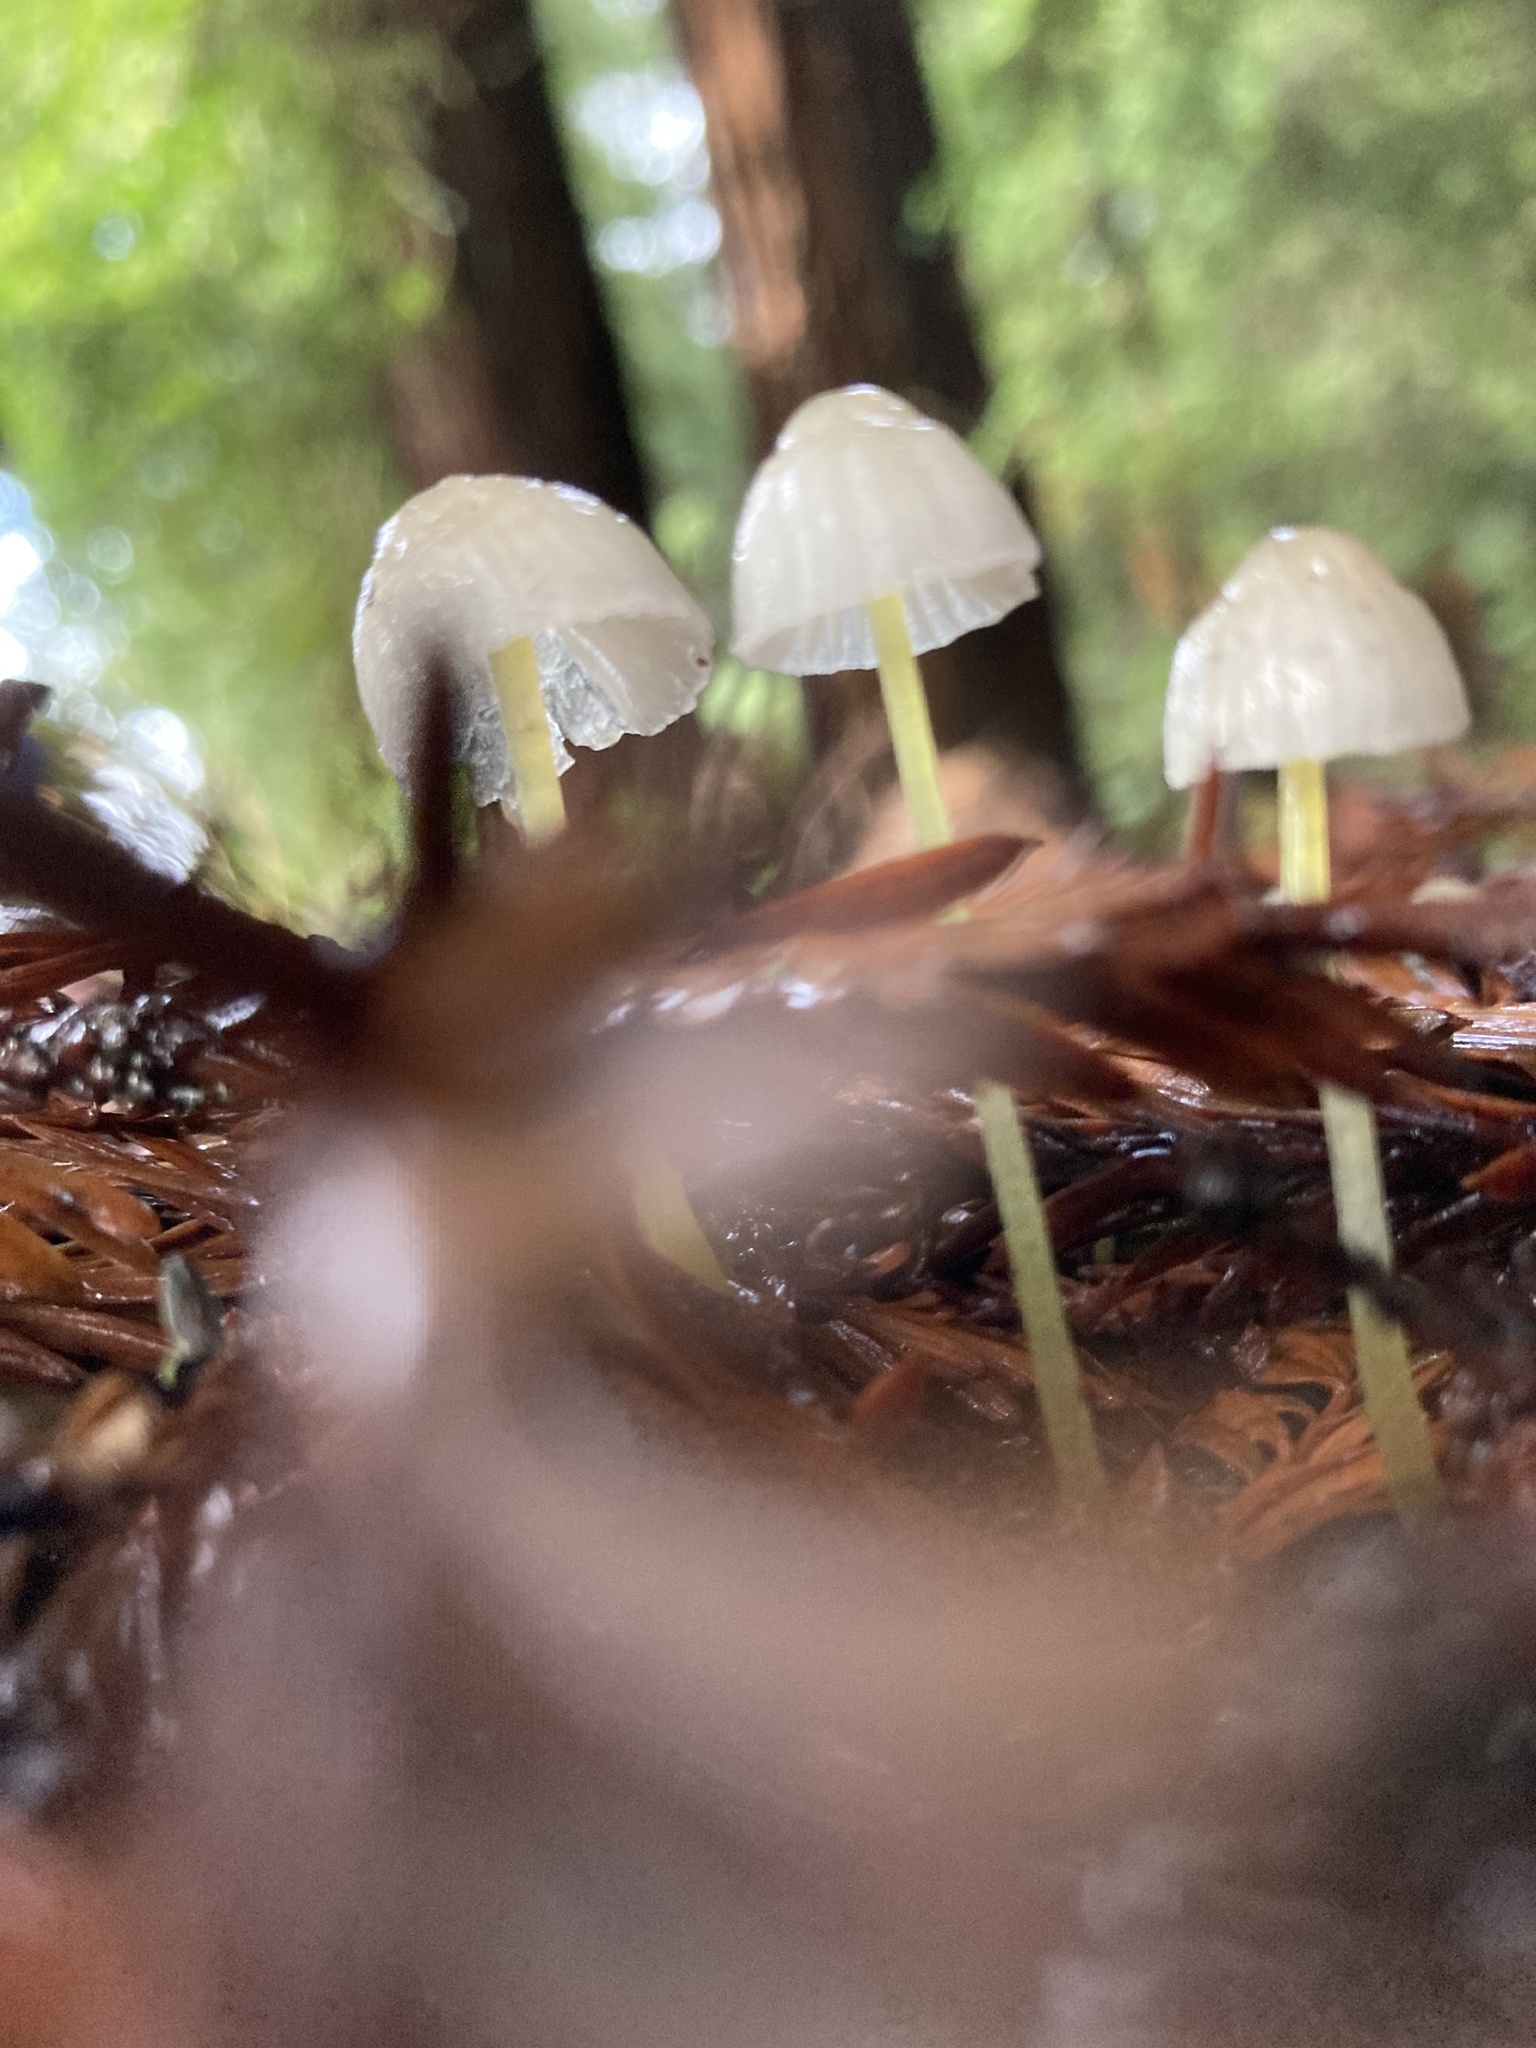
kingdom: Fungi
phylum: Basidiomycota
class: Agaricomycetes
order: Agaricales
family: Mycenaceae
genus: Mycena
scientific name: Mycena subviscosa
